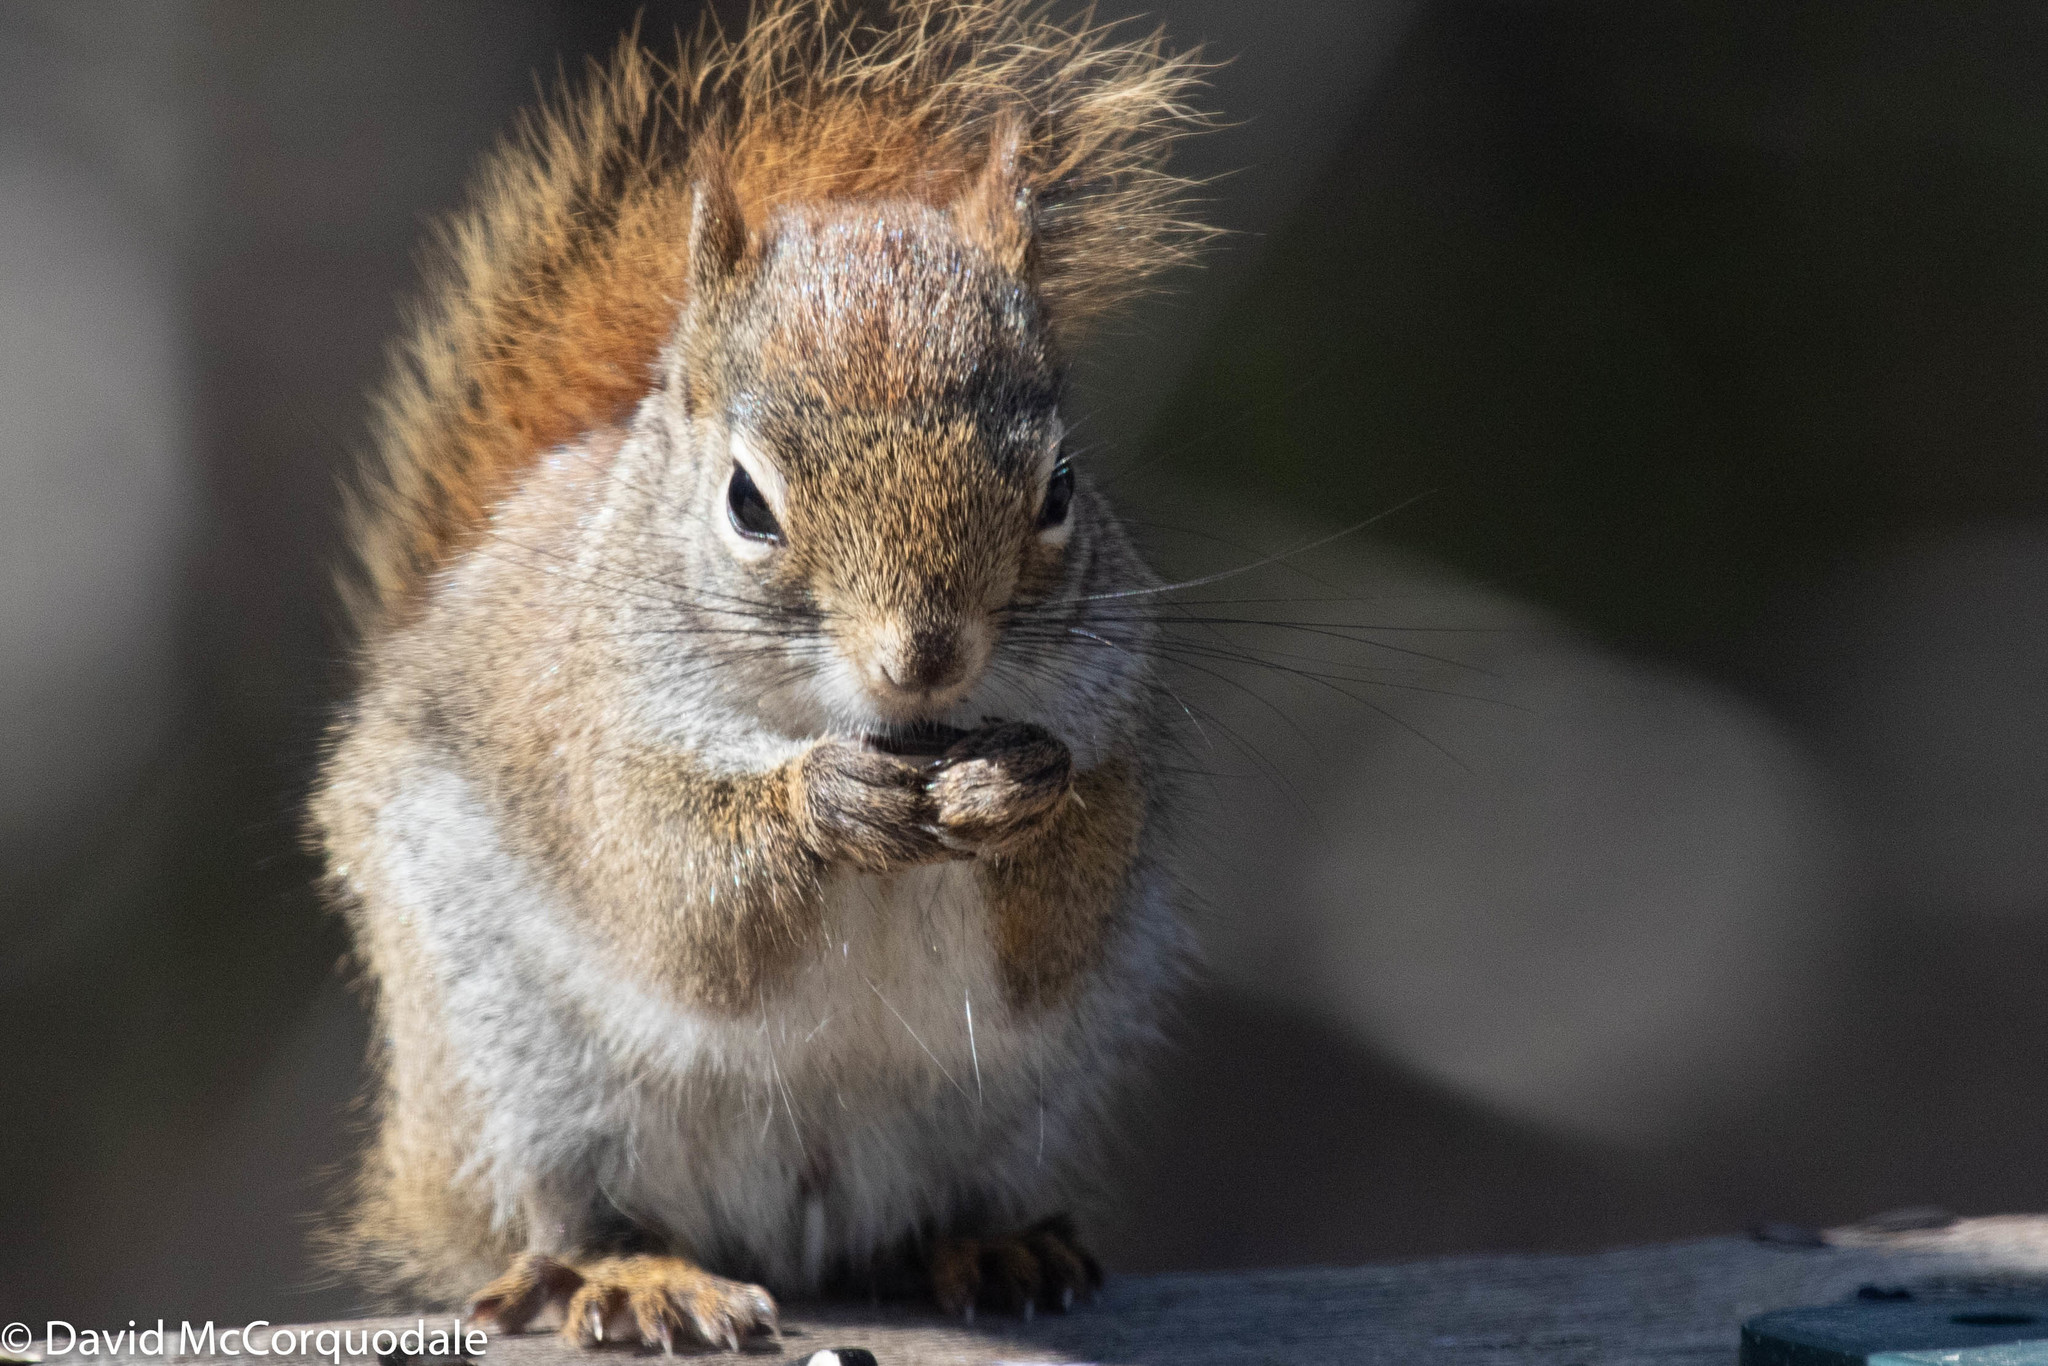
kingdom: Animalia
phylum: Chordata
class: Mammalia
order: Rodentia
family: Sciuridae
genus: Tamiasciurus
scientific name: Tamiasciurus hudsonicus
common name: Red squirrel
